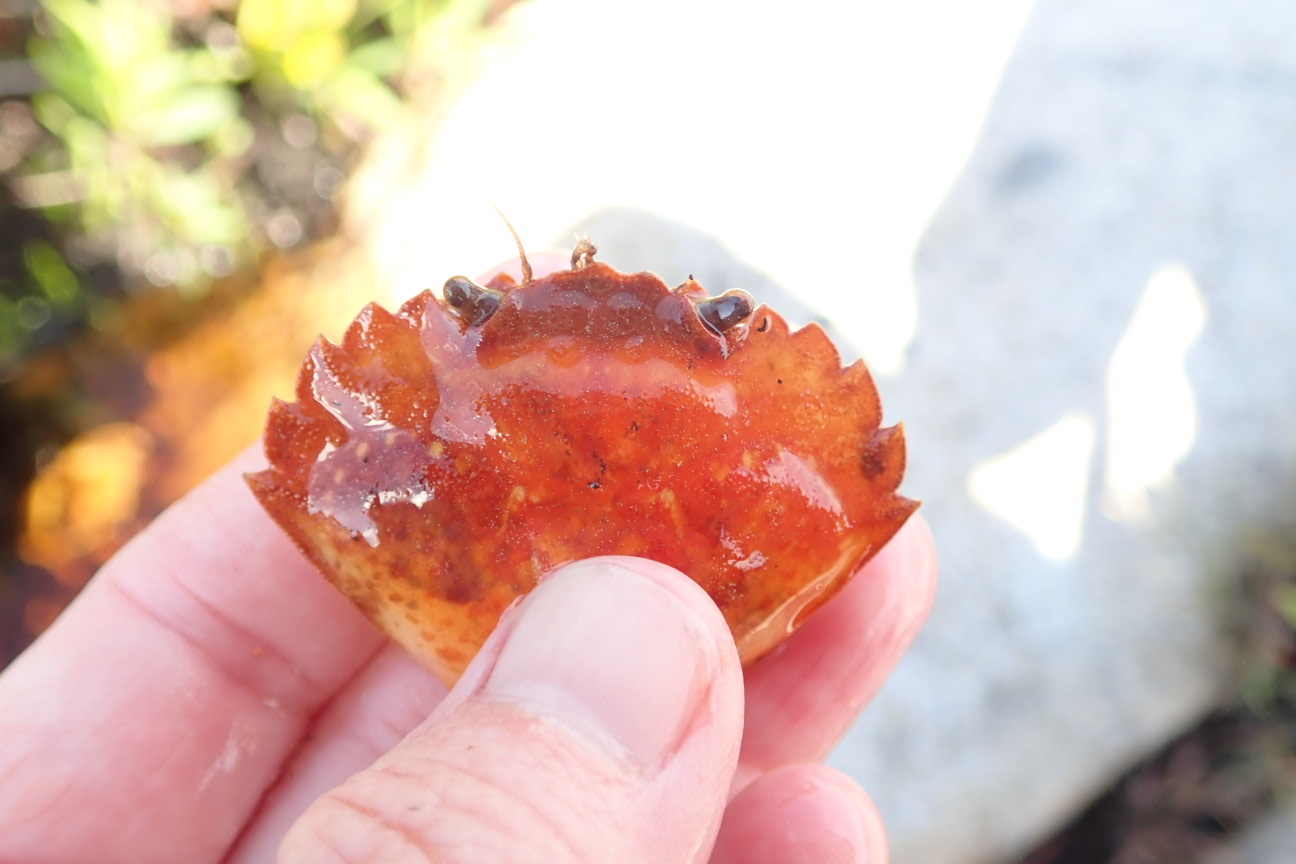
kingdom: Animalia
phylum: Arthropoda
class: Malacostraca
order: Decapoda
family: Carcinidae
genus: Carcinus
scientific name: Carcinus maenas
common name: European green crab
